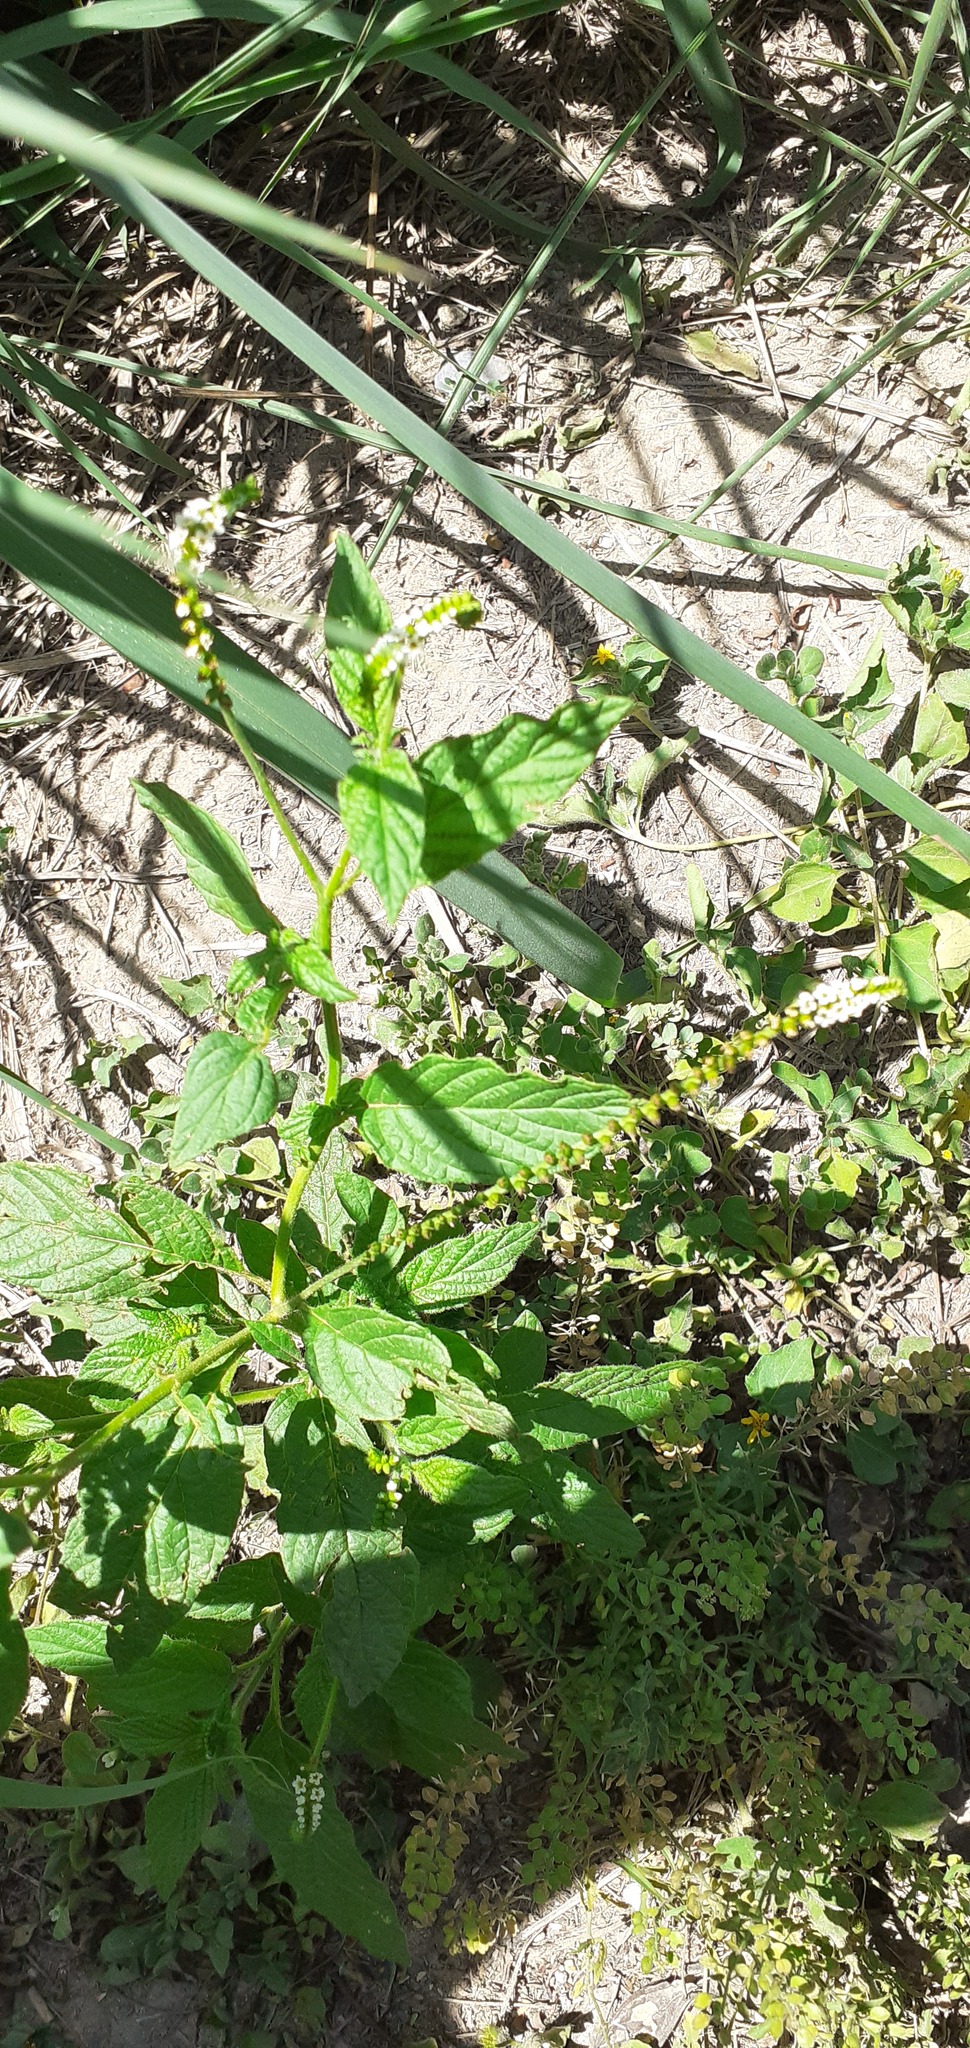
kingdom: Plantae
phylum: Tracheophyta
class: Magnoliopsida
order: Boraginales
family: Heliotropiaceae
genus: Heliotropium
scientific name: Heliotropium angiospermum
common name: Eye bright
